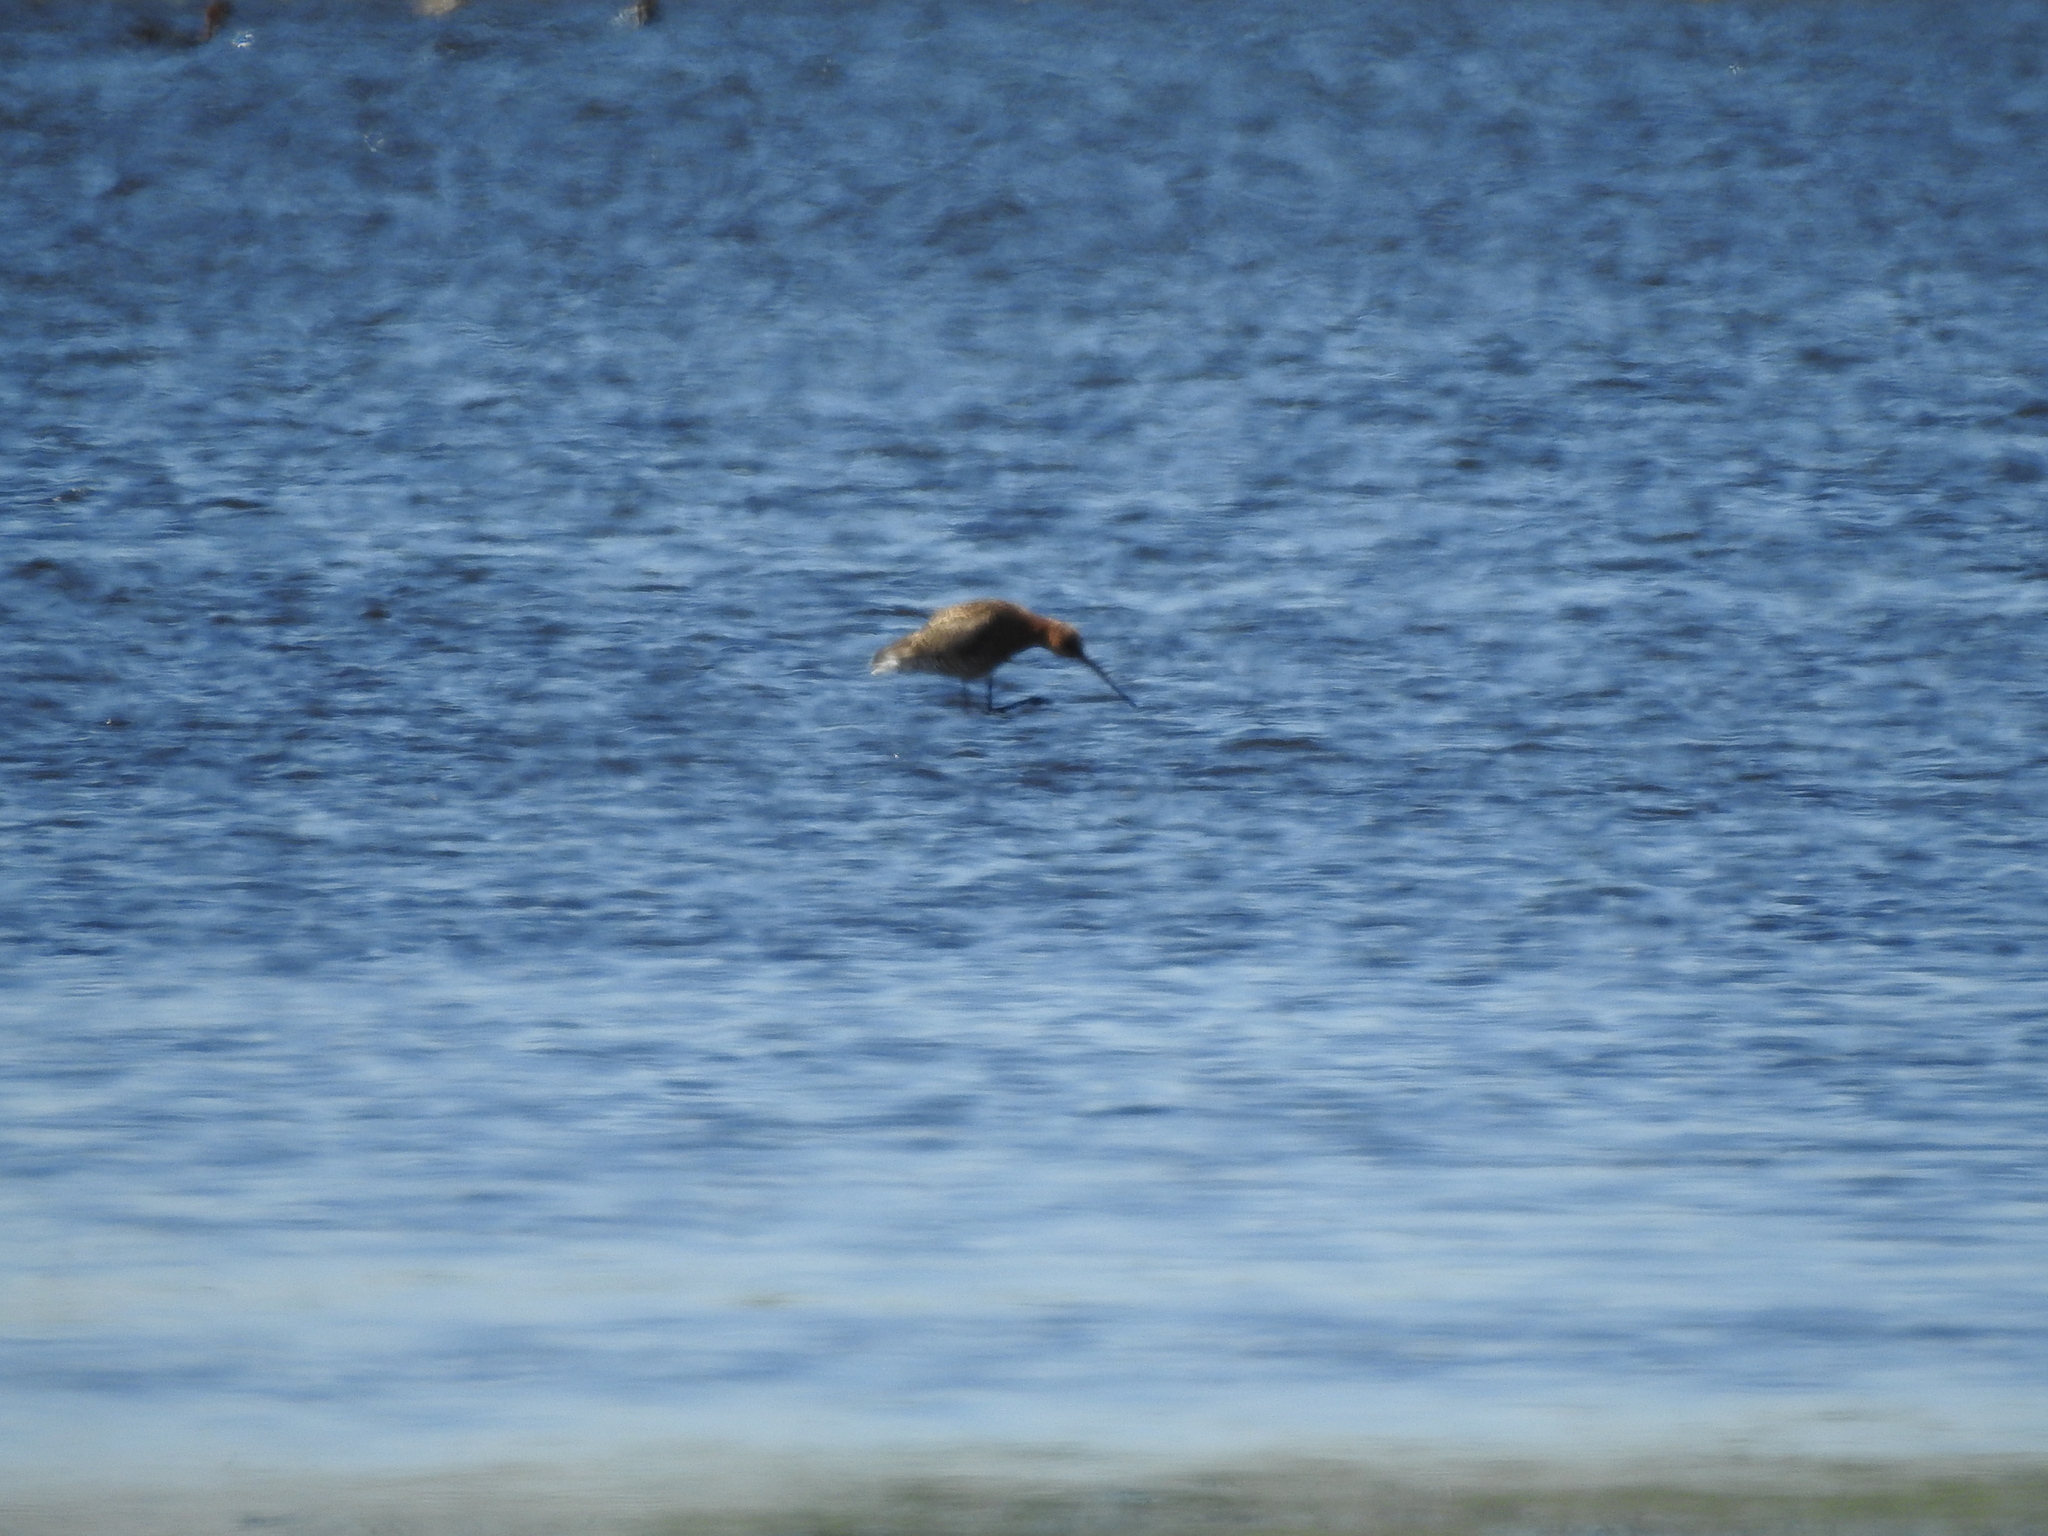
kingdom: Animalia
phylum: Chordata
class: Aves
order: Charadriiformes
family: Scolopacidae
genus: Limosa
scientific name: Limosa limosa
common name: Black-tailed godwit
